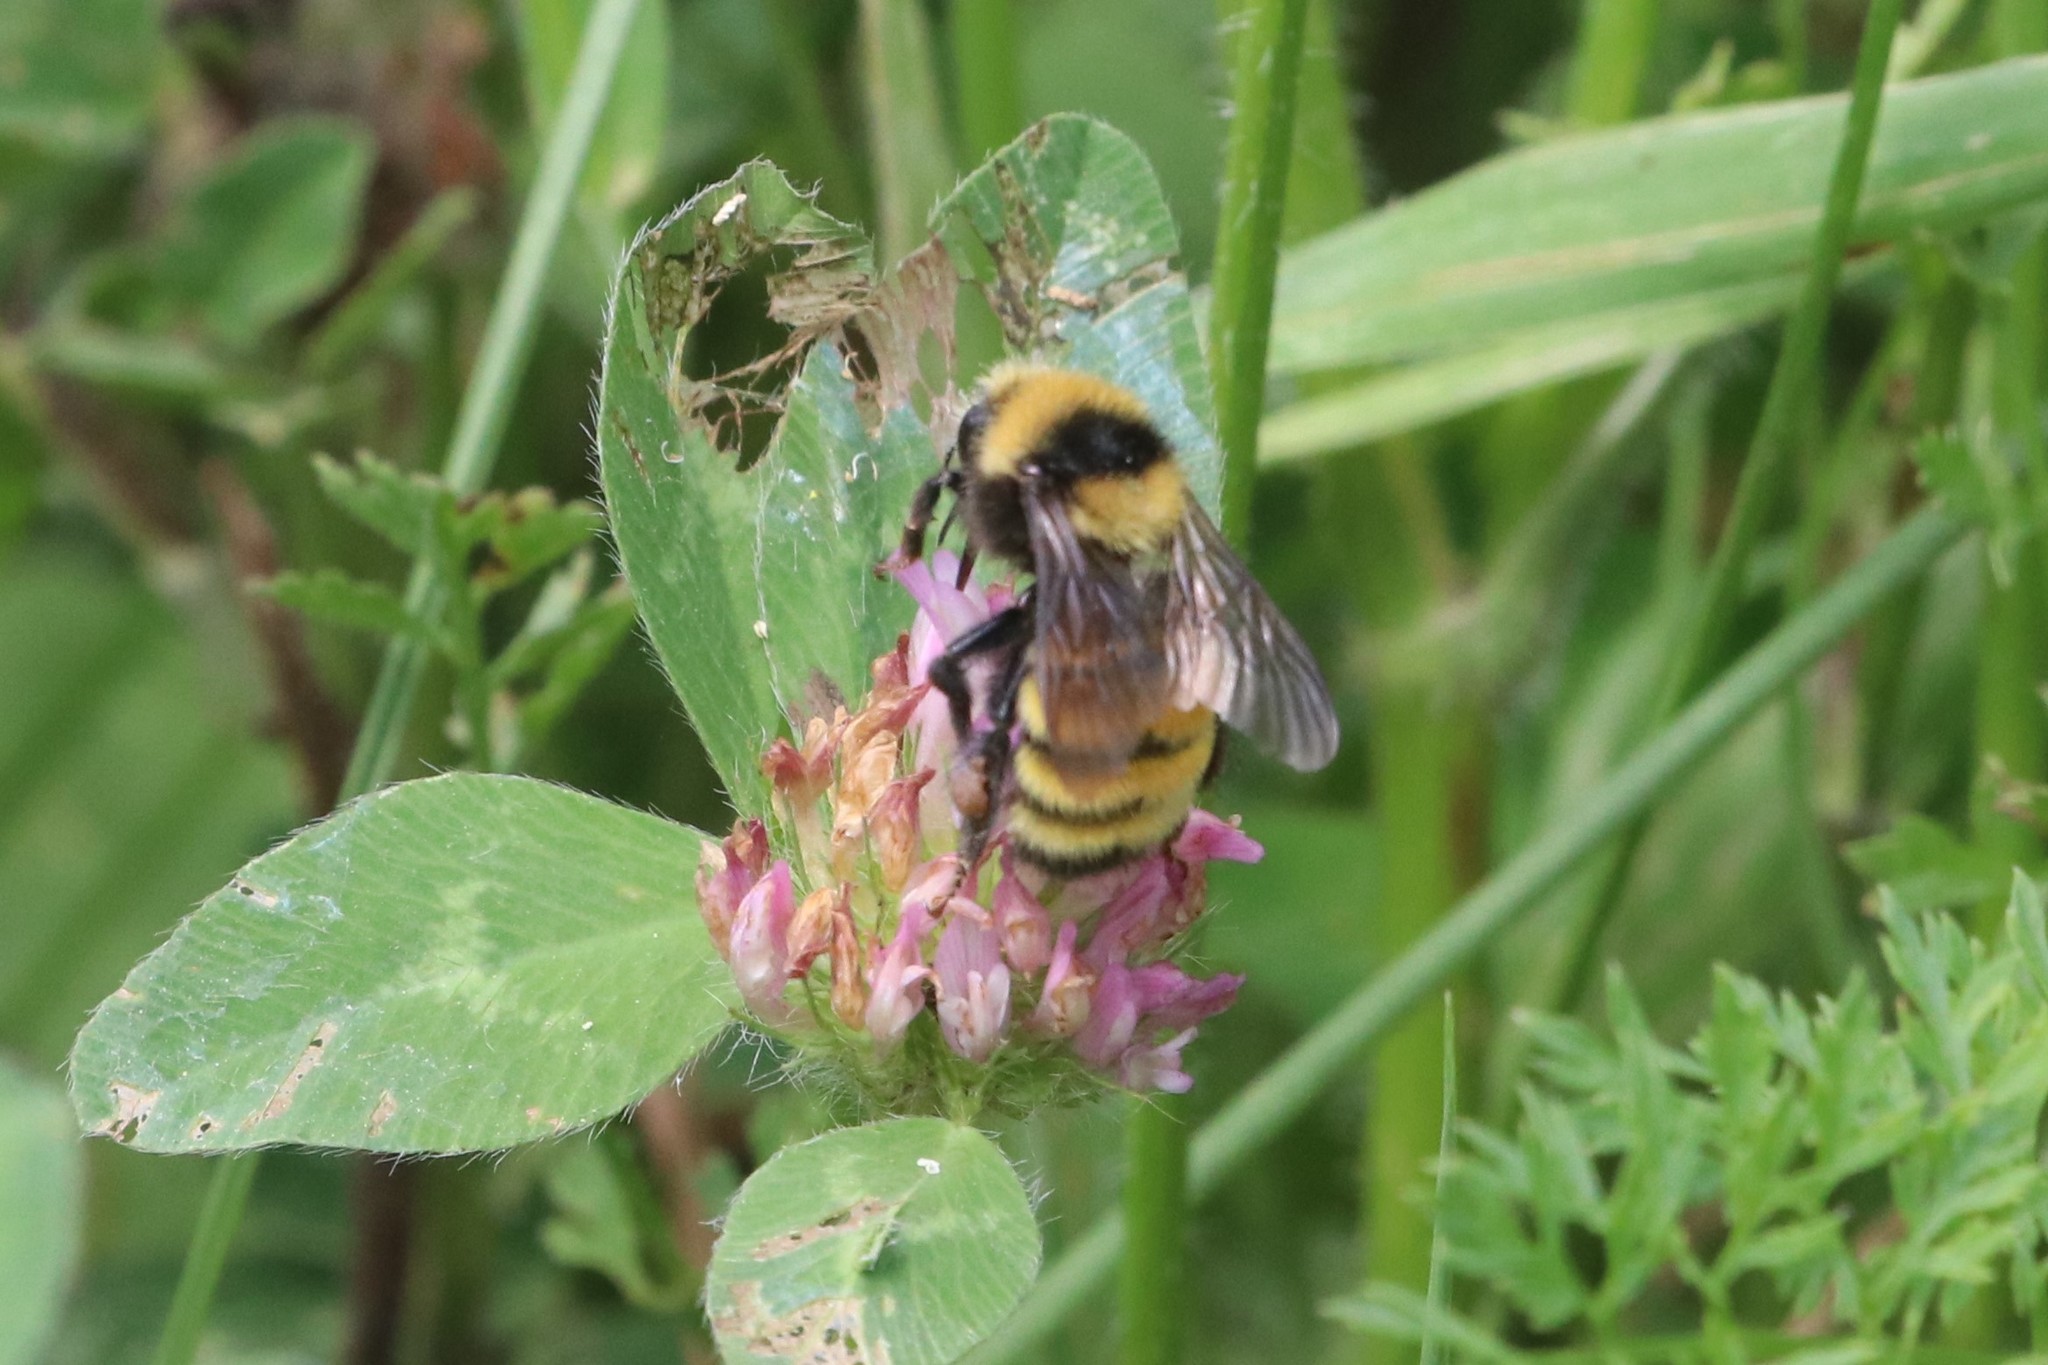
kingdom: Animalia
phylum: Arthropoda
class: Insecta
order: Hymenoptera
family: Apidae
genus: Bombus
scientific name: Bombus borealis
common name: Northern amber bumble bee
